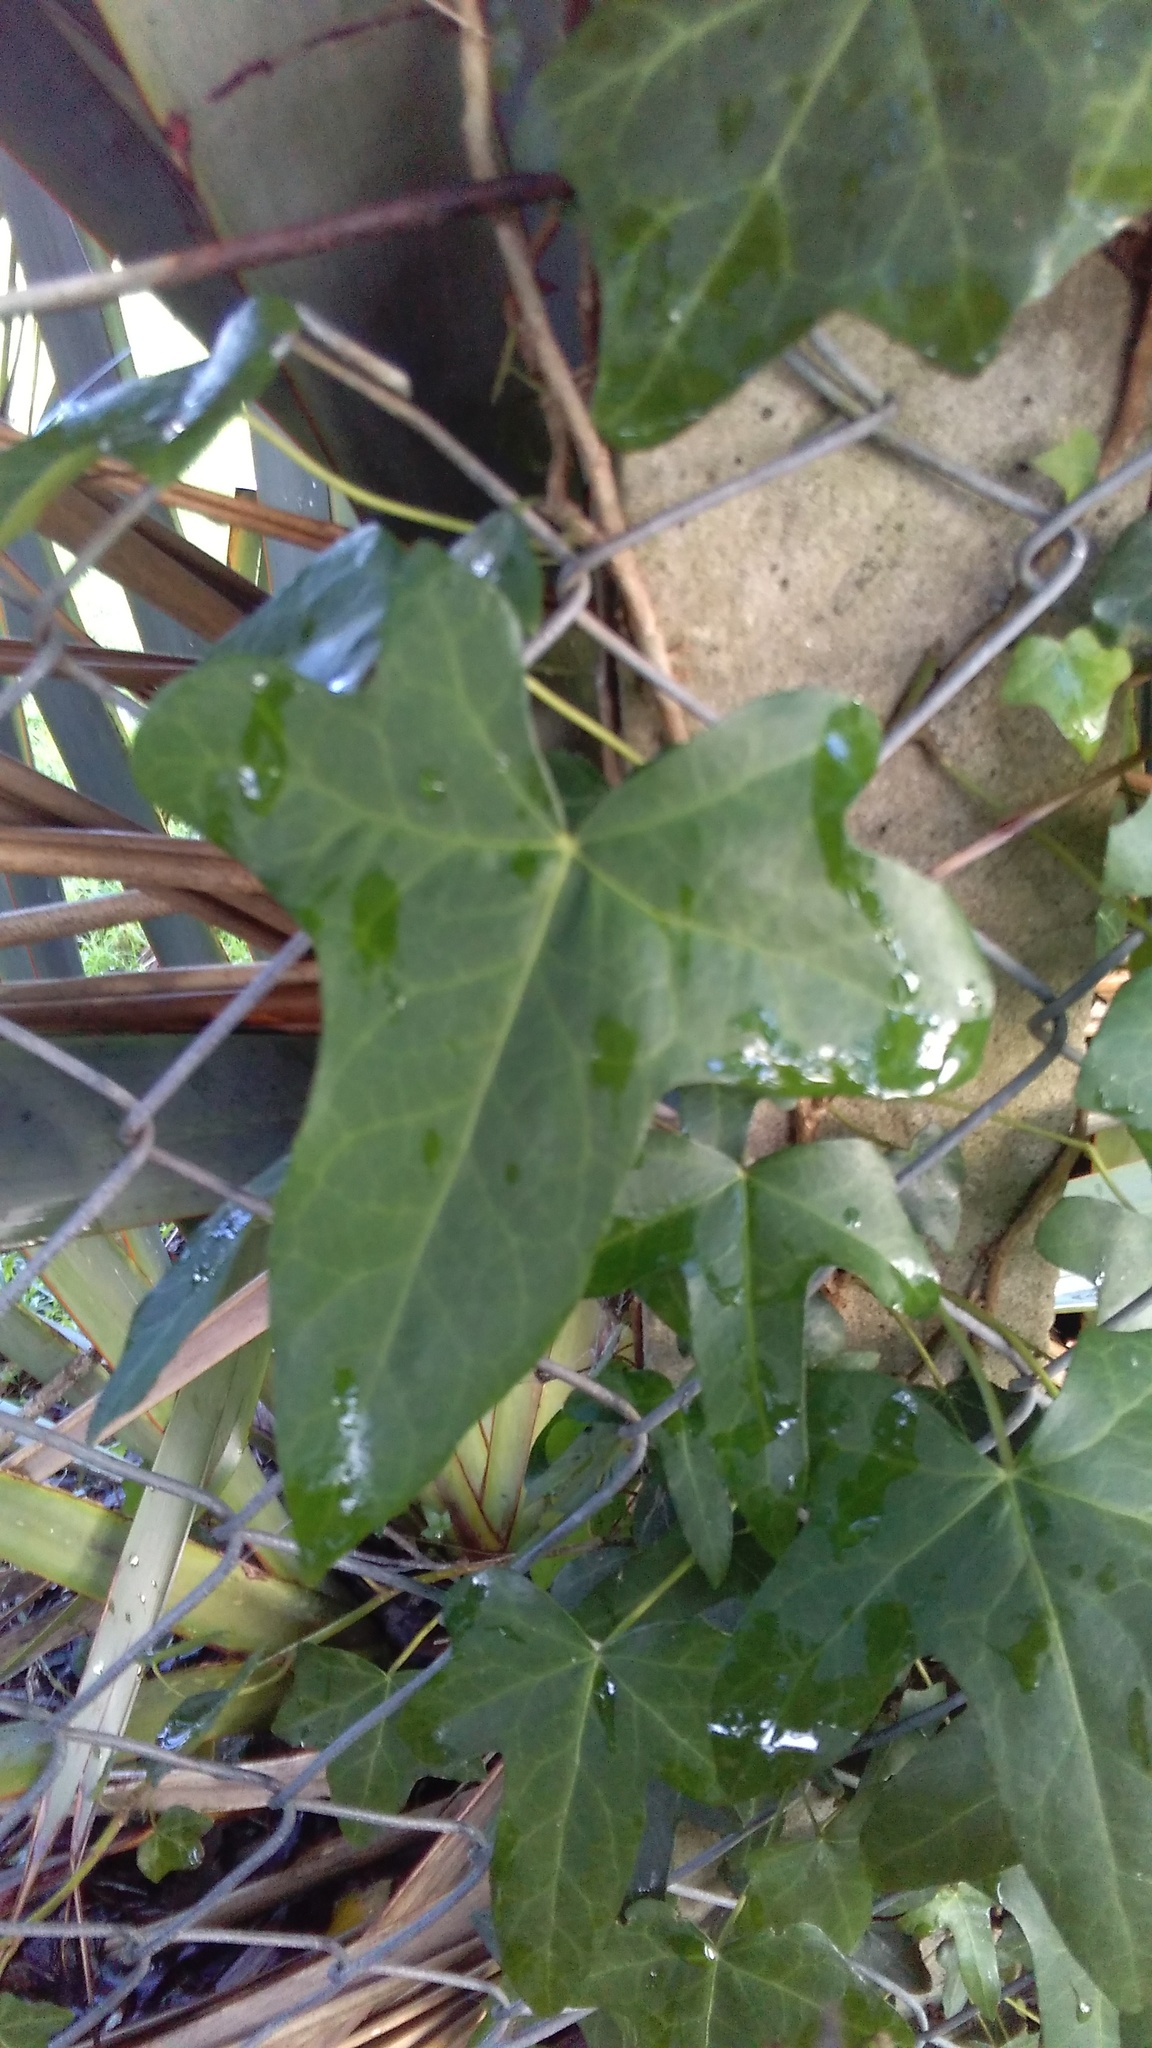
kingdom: Plantae
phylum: Tracheophyta
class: Magnoliopsida
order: Apiales
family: Araliaceae
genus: Hedera
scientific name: Hedera helix
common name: Ivy
